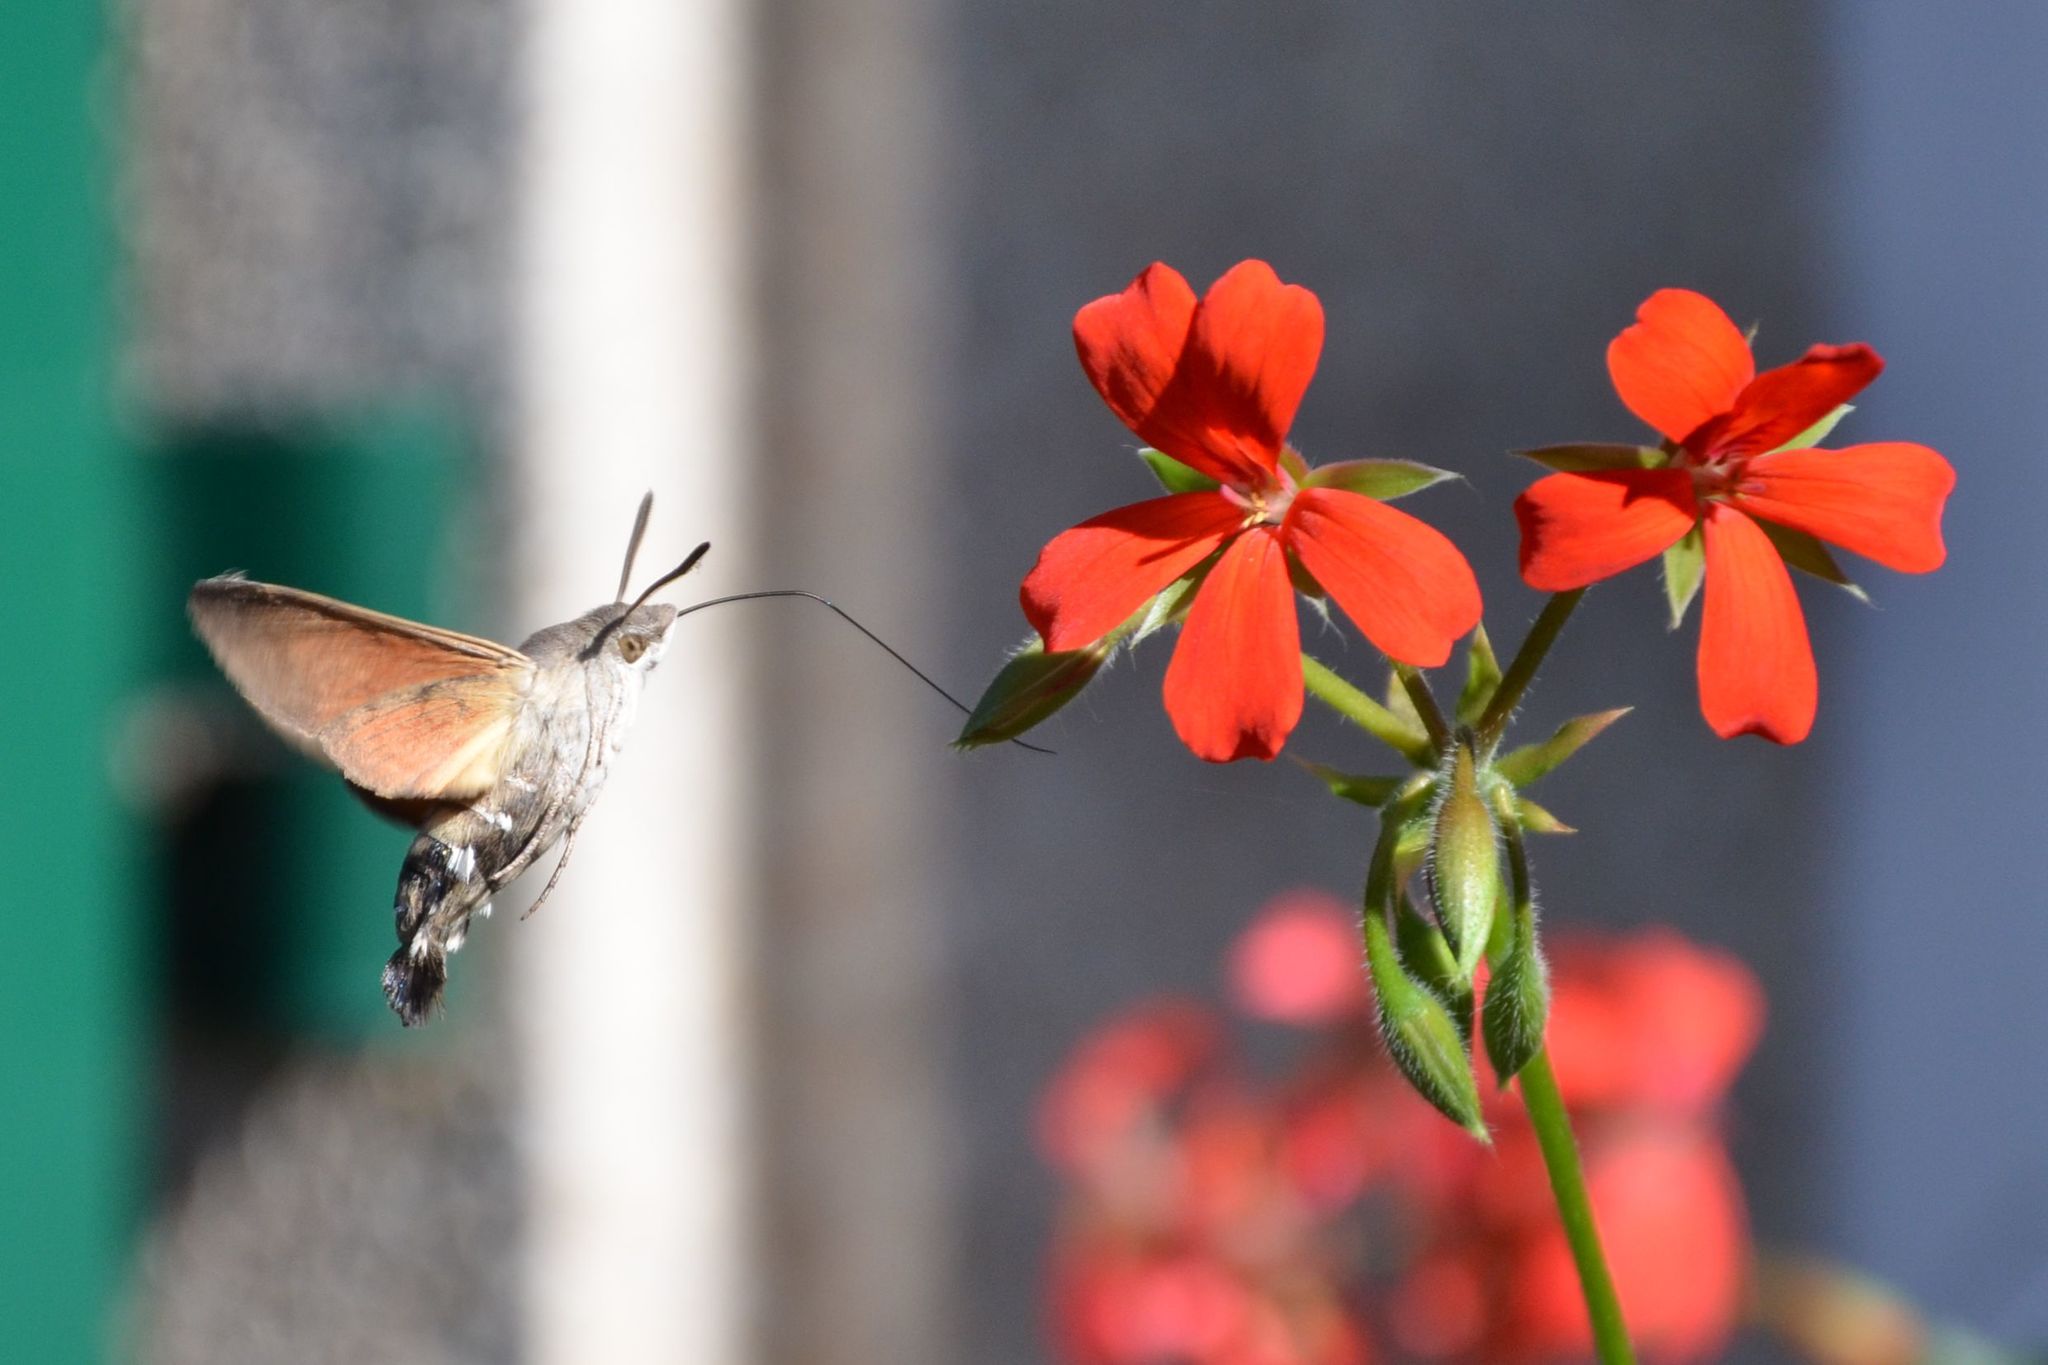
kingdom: Animalia
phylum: Arthropoda
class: Insecta
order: Lepidoptera
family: Sphingidae
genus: Macroglossum
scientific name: Macroglossum stellatarum
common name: Humming-bird hawk-moth
